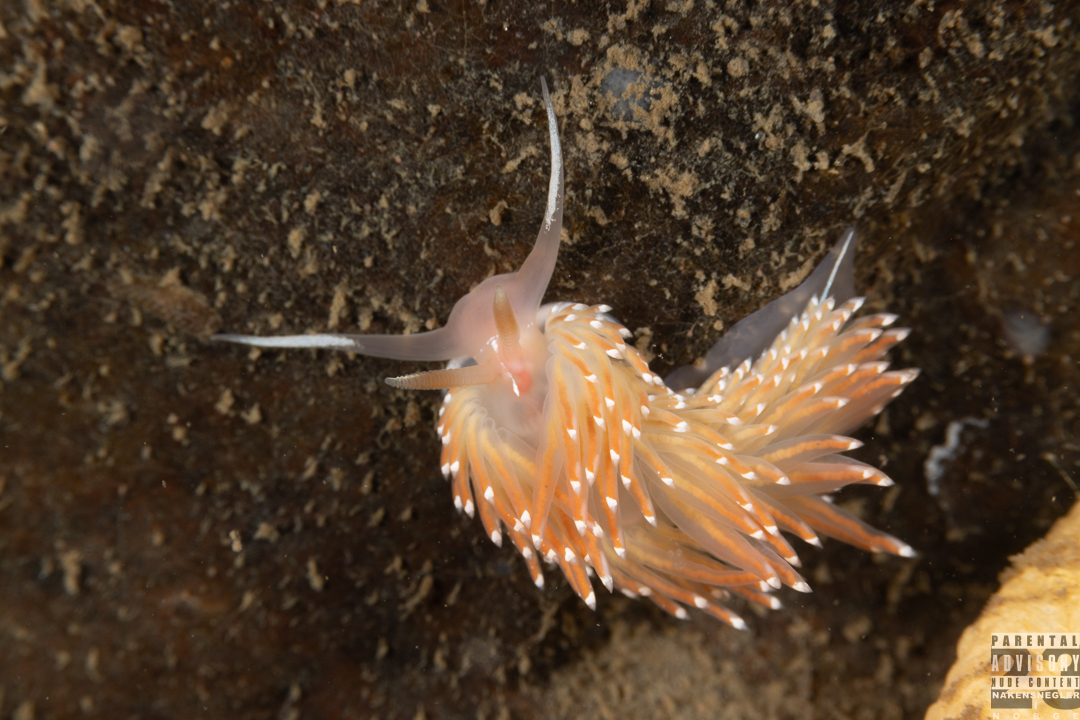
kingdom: Animalia
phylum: Mollusca
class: Gastropoda
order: Nudibranchia
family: Facelinidae
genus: Facelina
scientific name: Facelina bostoniensis
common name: Boston facelina
